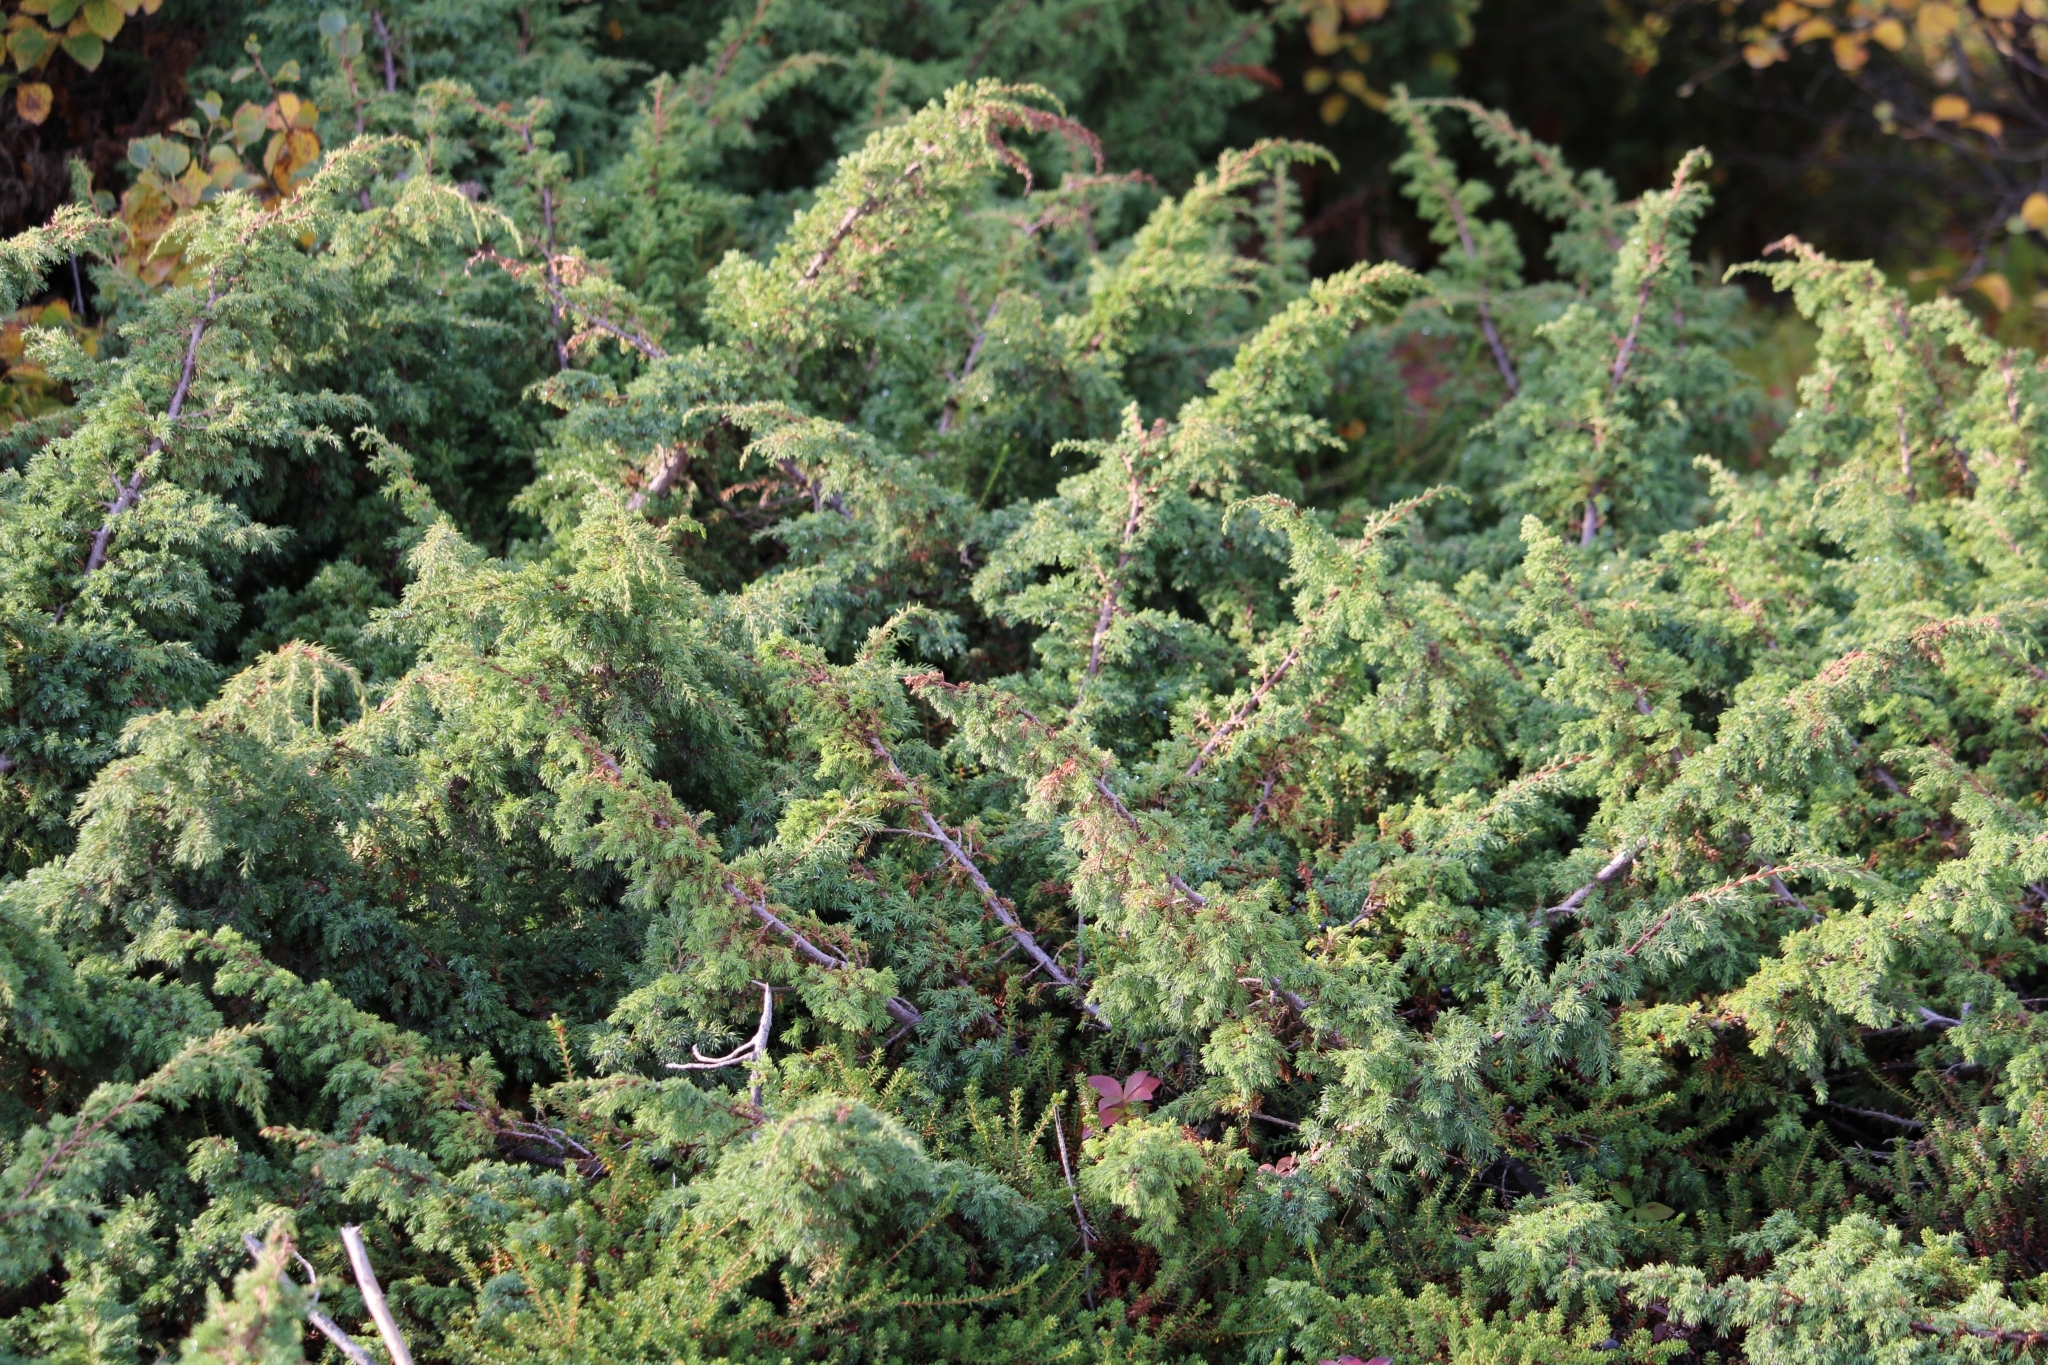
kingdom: Plantae
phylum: Tracheophyta
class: Pinopsida
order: Pinales
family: Cupressaceae
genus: Juniperus
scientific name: Juniperus communis
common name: Common juniper
